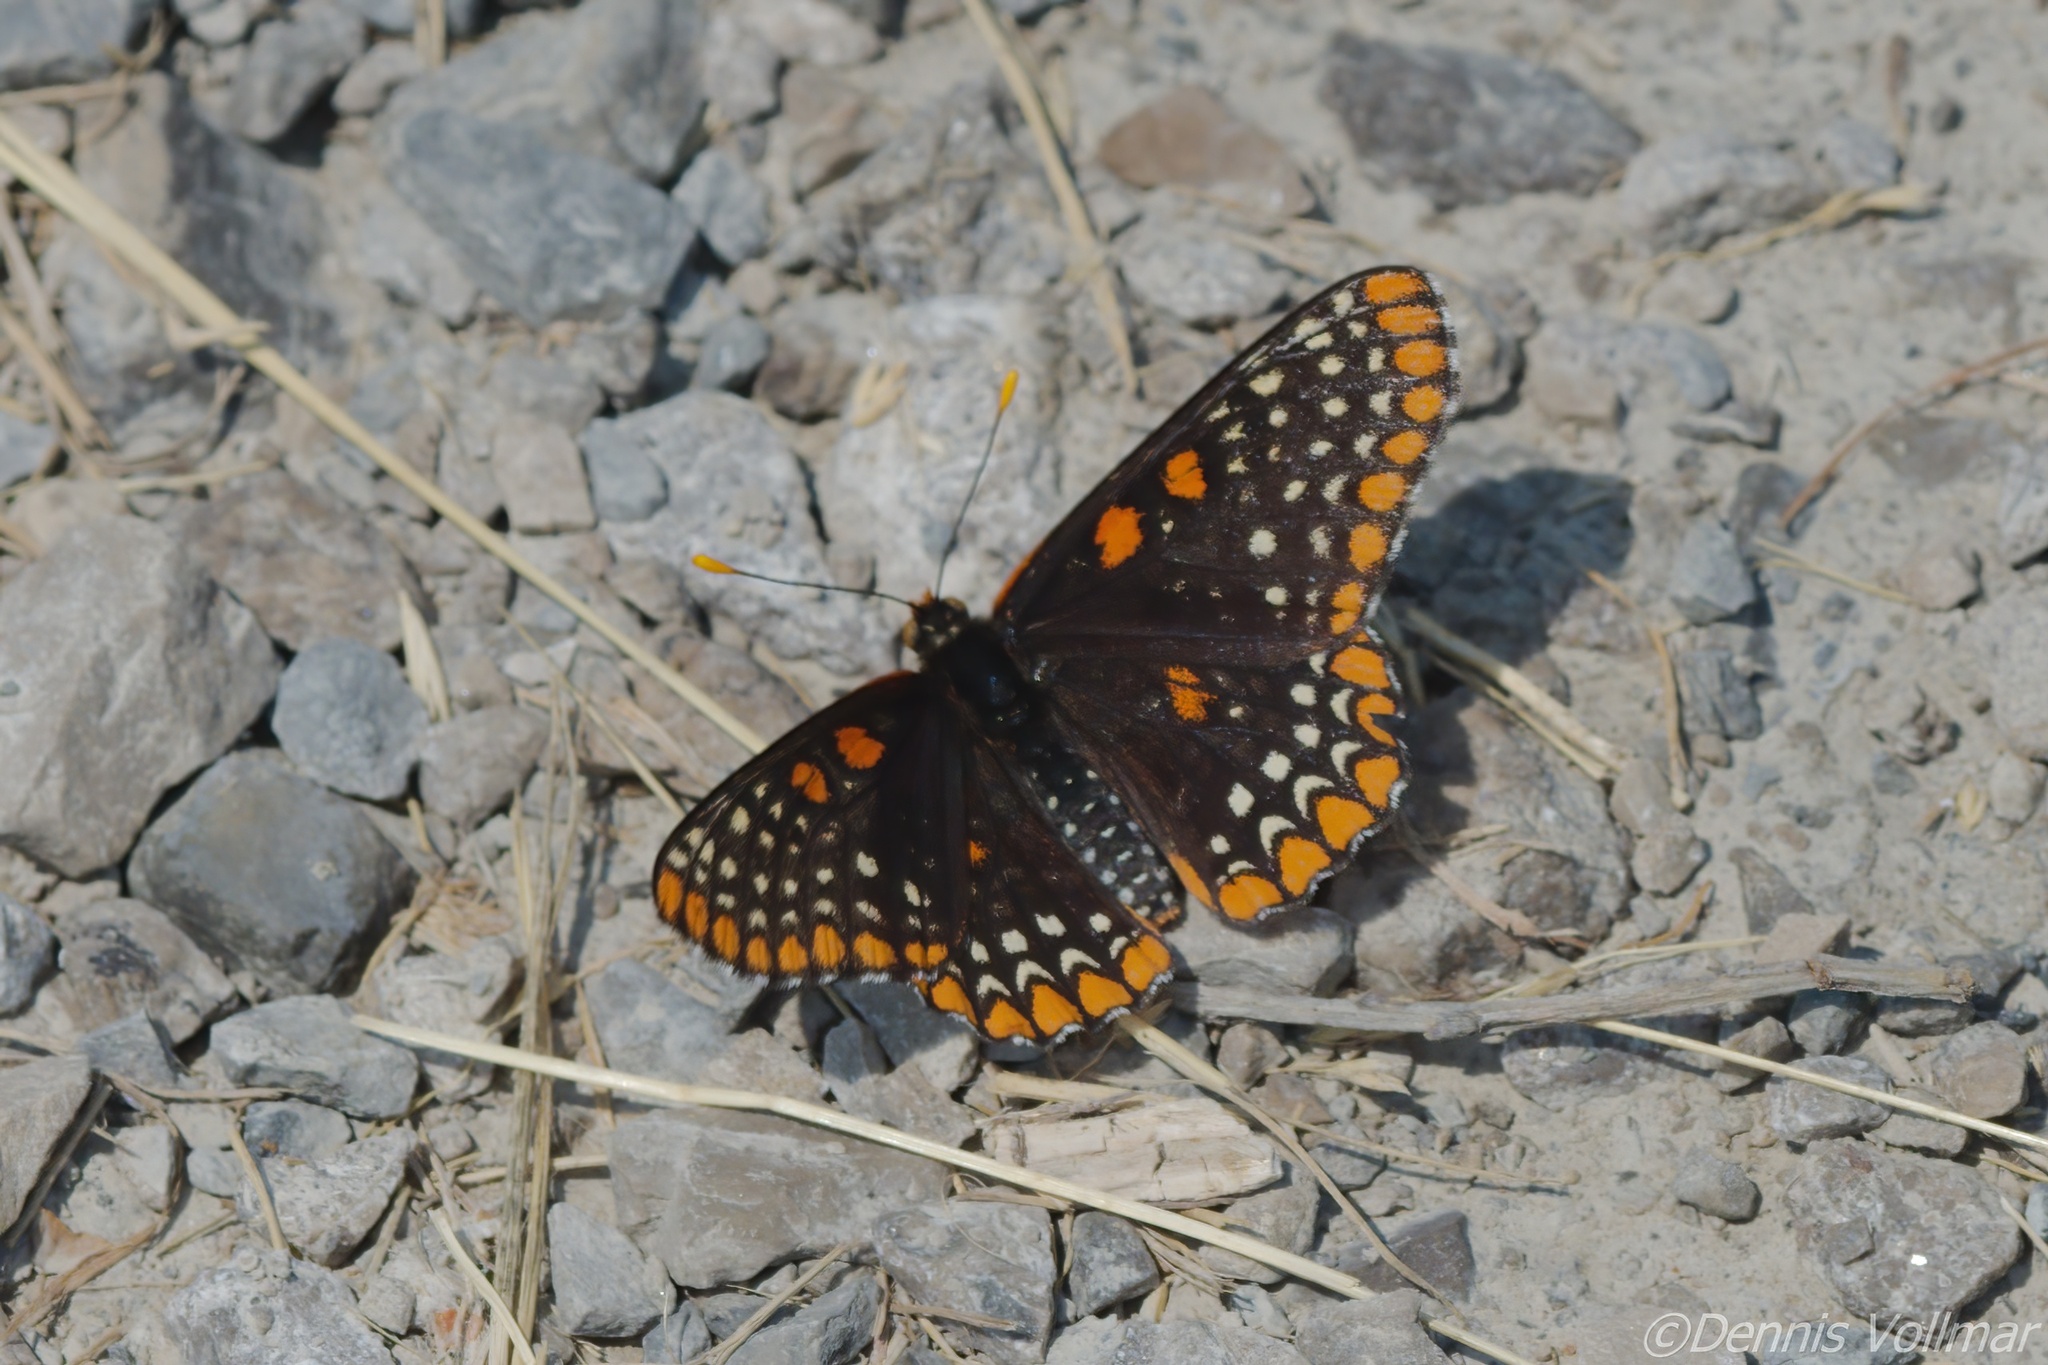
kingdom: Animalia
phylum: Arthropoda
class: Insecta
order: Lepidoptera
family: Nymphalidae
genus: Euphydryas
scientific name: Euphydryas phaeton
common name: Baltimore checkerspot
